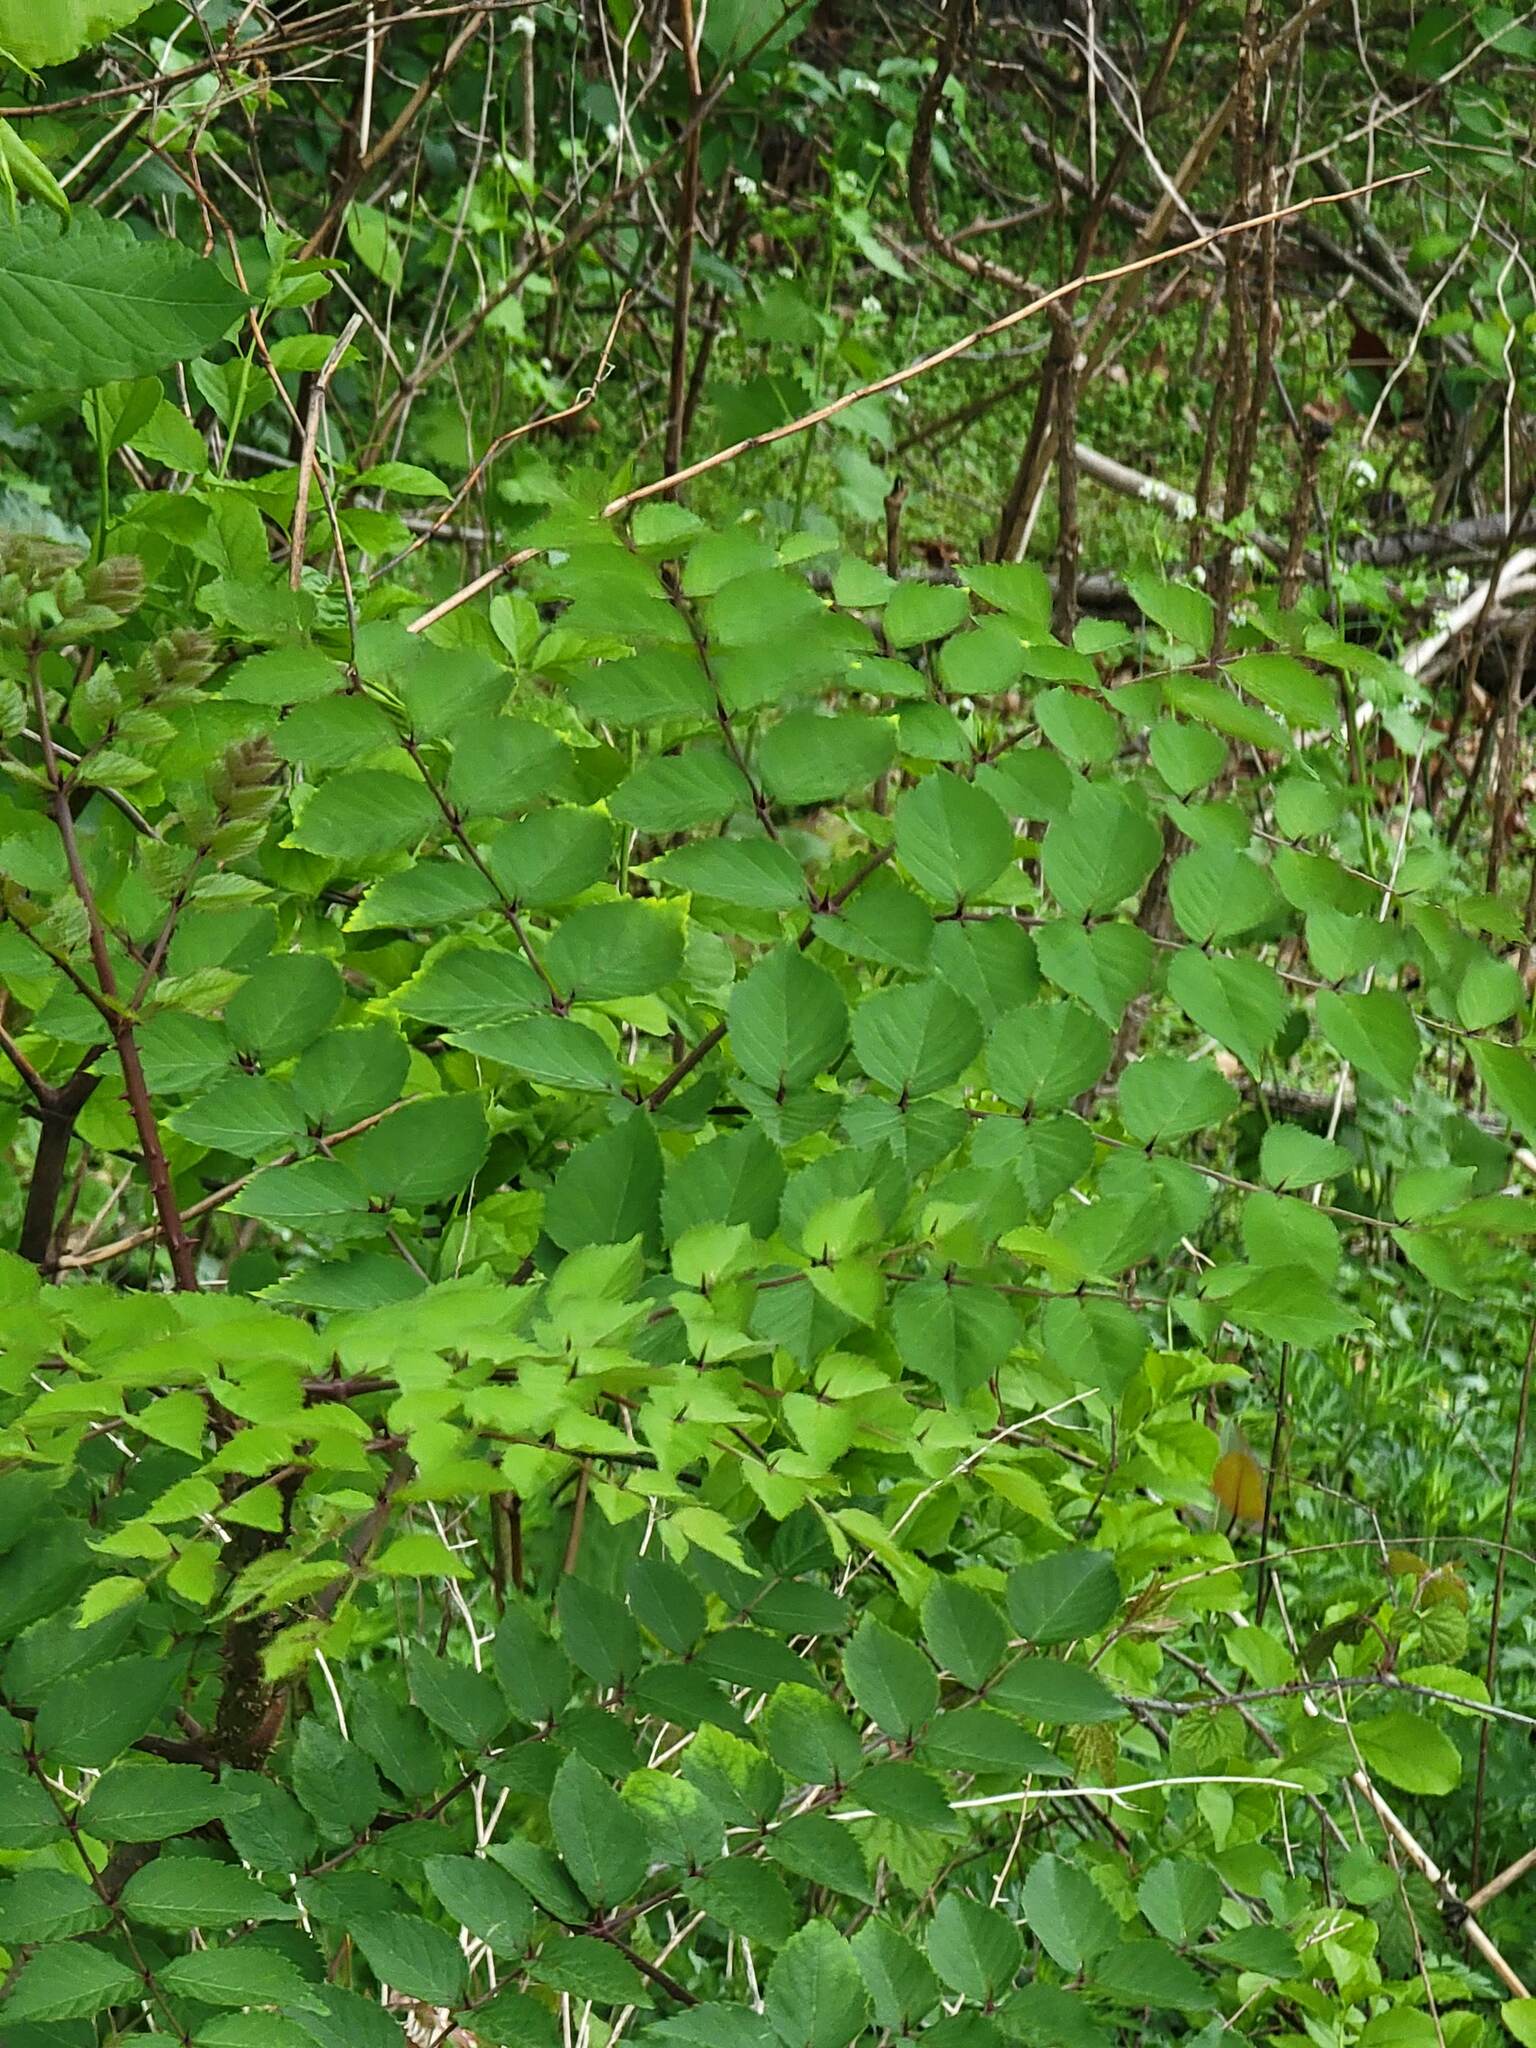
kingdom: Plantae
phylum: Tracheophyta
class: Magnoliopsida
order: Apiales
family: Araliaceae
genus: Aralia
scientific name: Aralia elata
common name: Japanese angelica-tree
